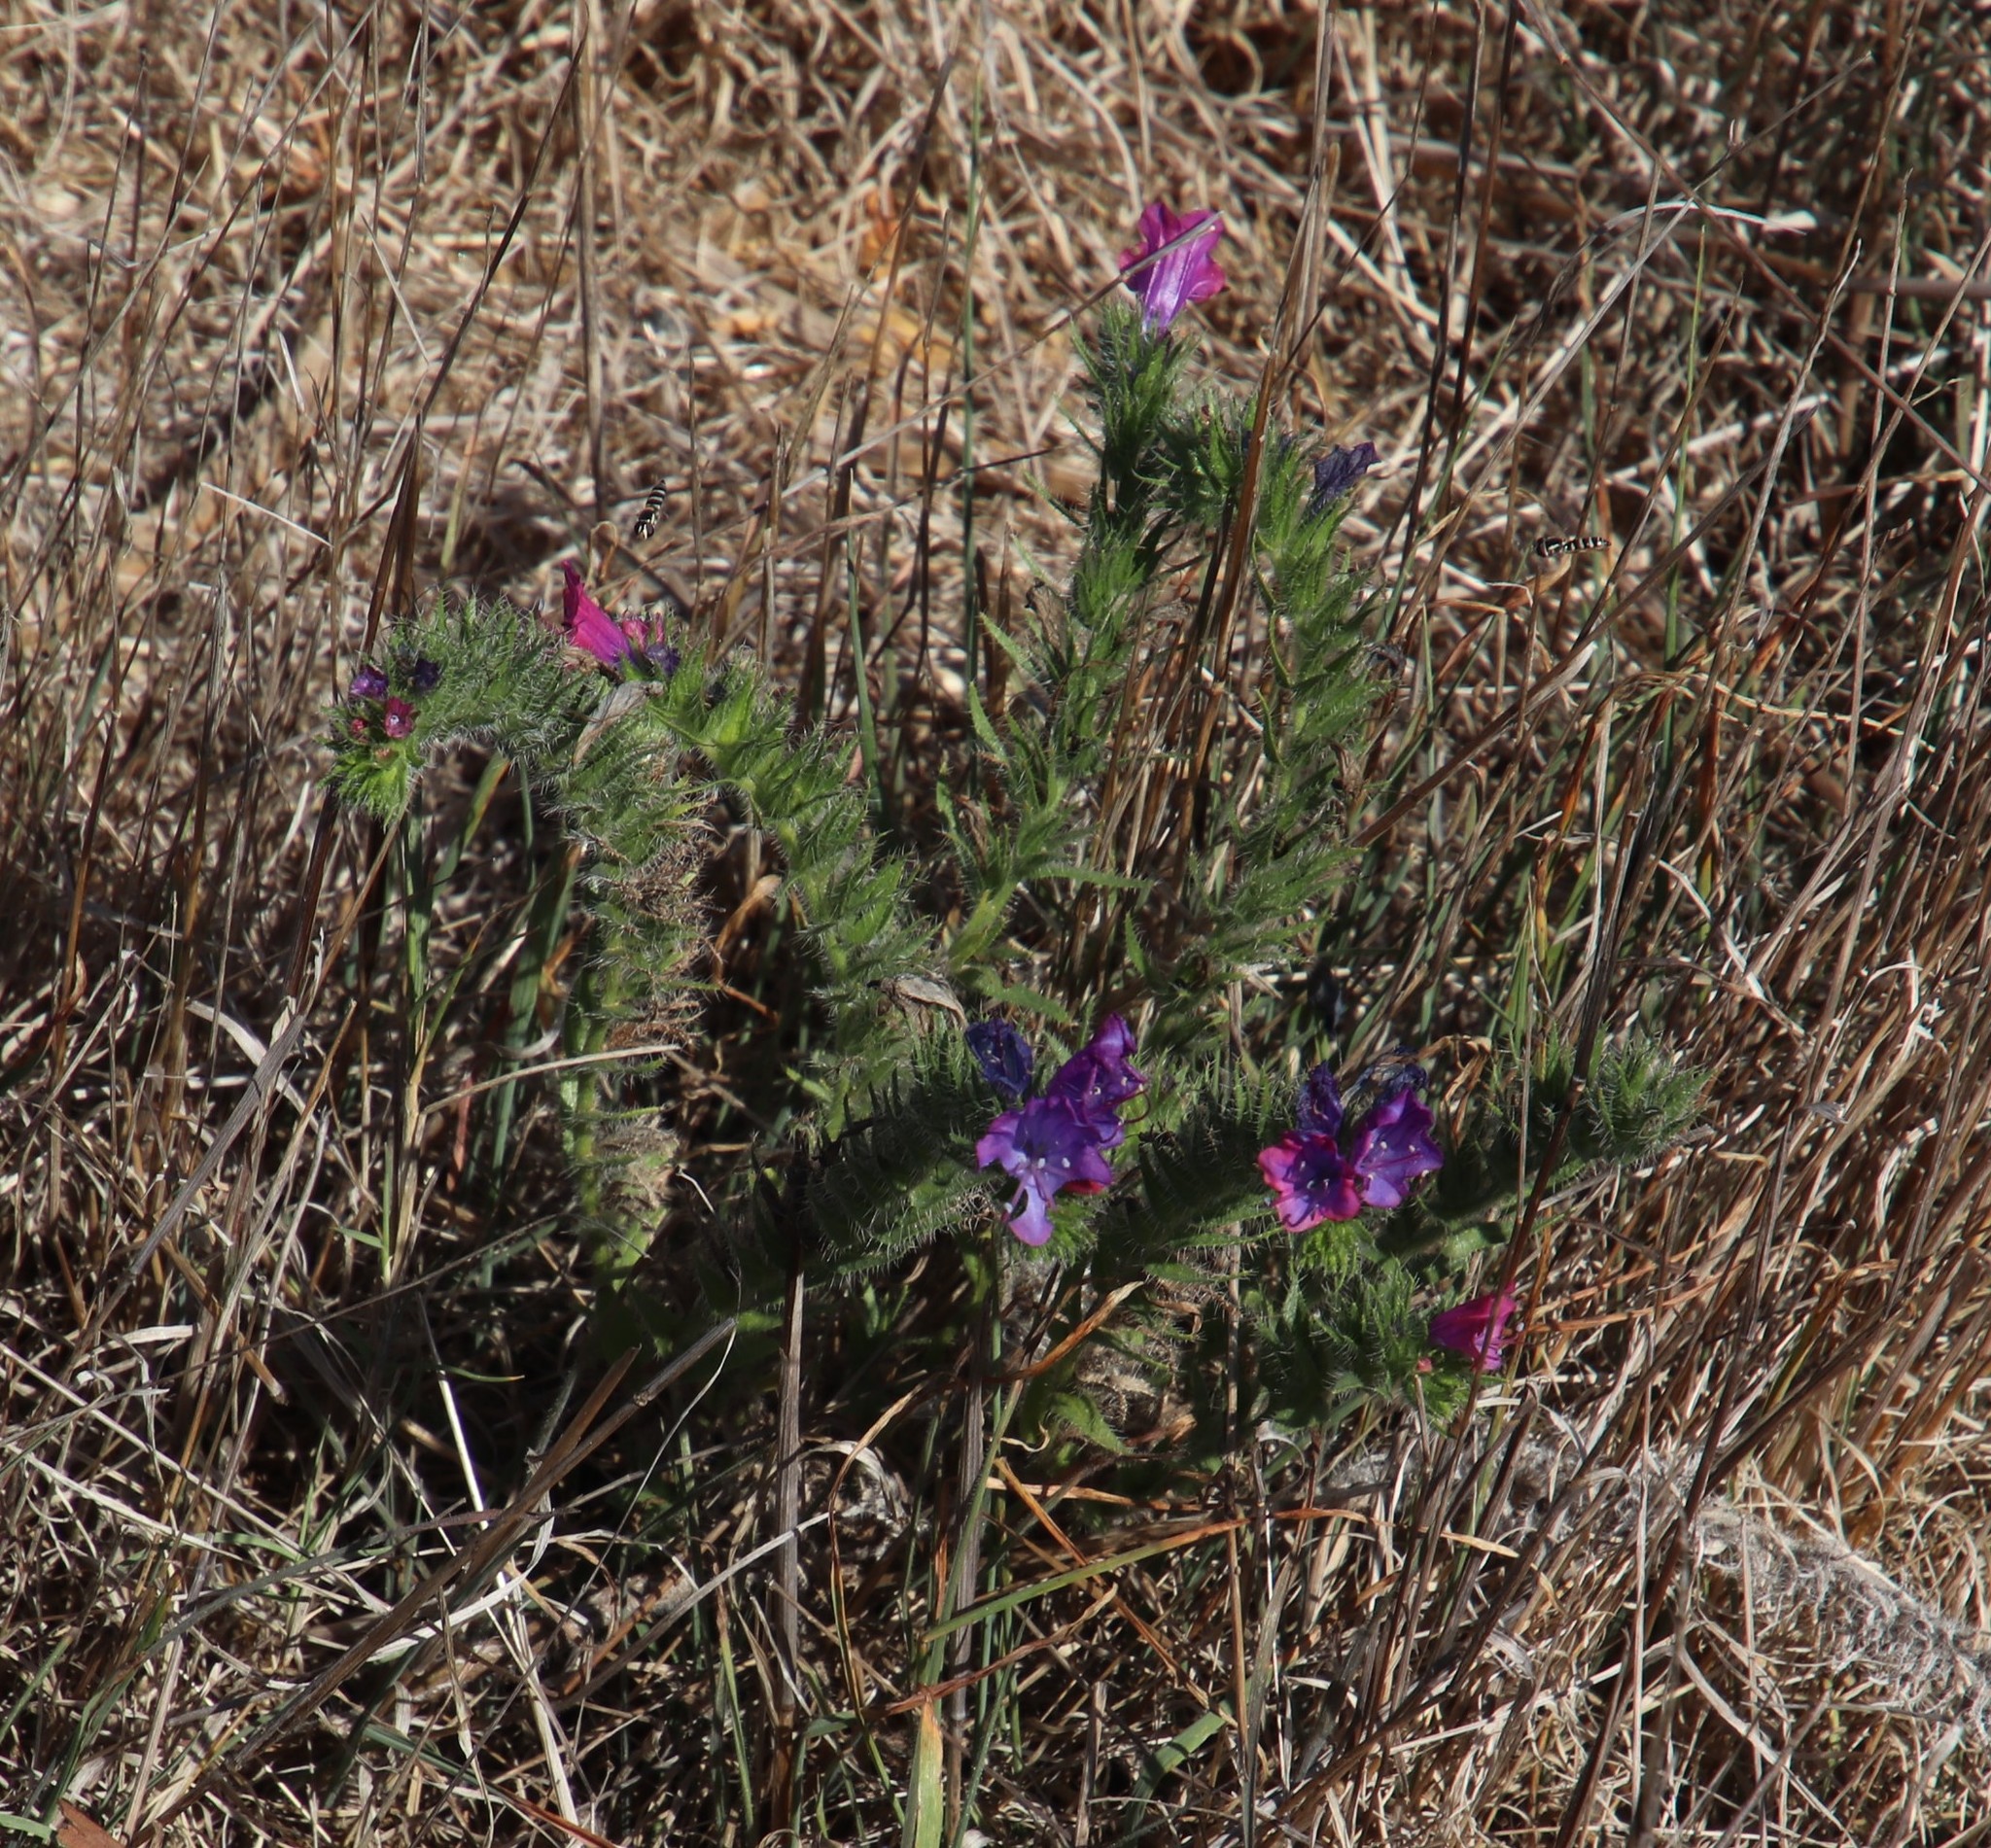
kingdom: Plantae
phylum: Tracheophyta
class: Magnoliopsida
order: Boraginales
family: Boraginaceae
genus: Echium
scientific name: Echium plantagineum
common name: Purple viper's-bugloss
